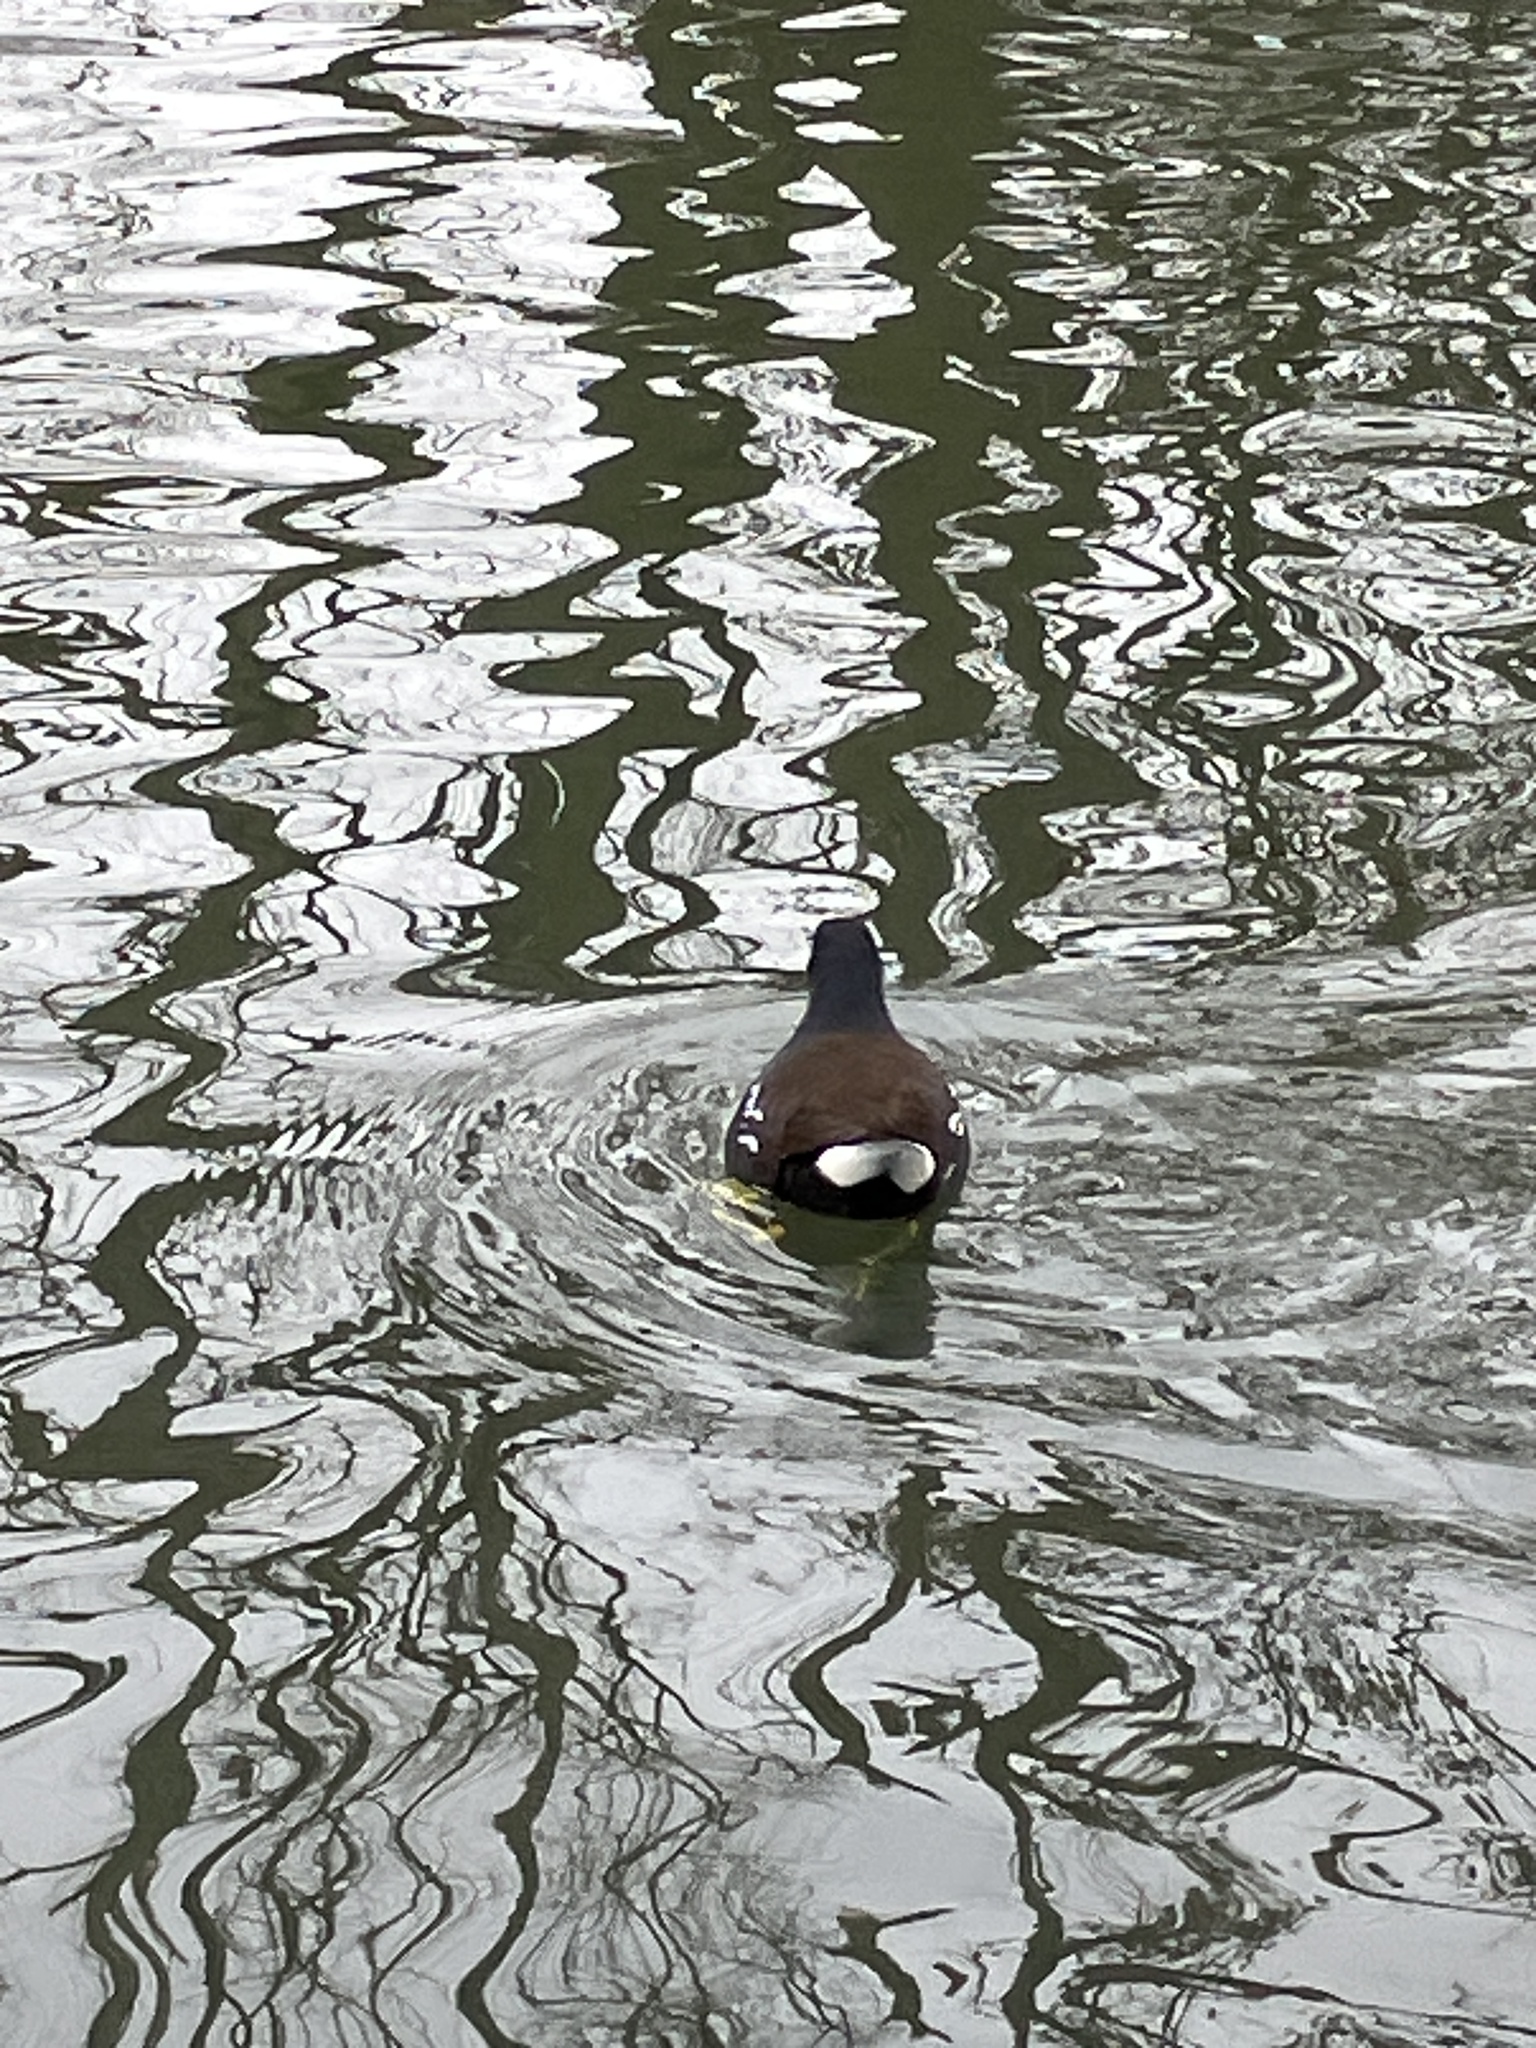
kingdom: Animalia
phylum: Chordata
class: Aves
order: Gruiformes
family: Rallidae
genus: Gallinula
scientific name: Gallinula chloropus
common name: Common moorhen
